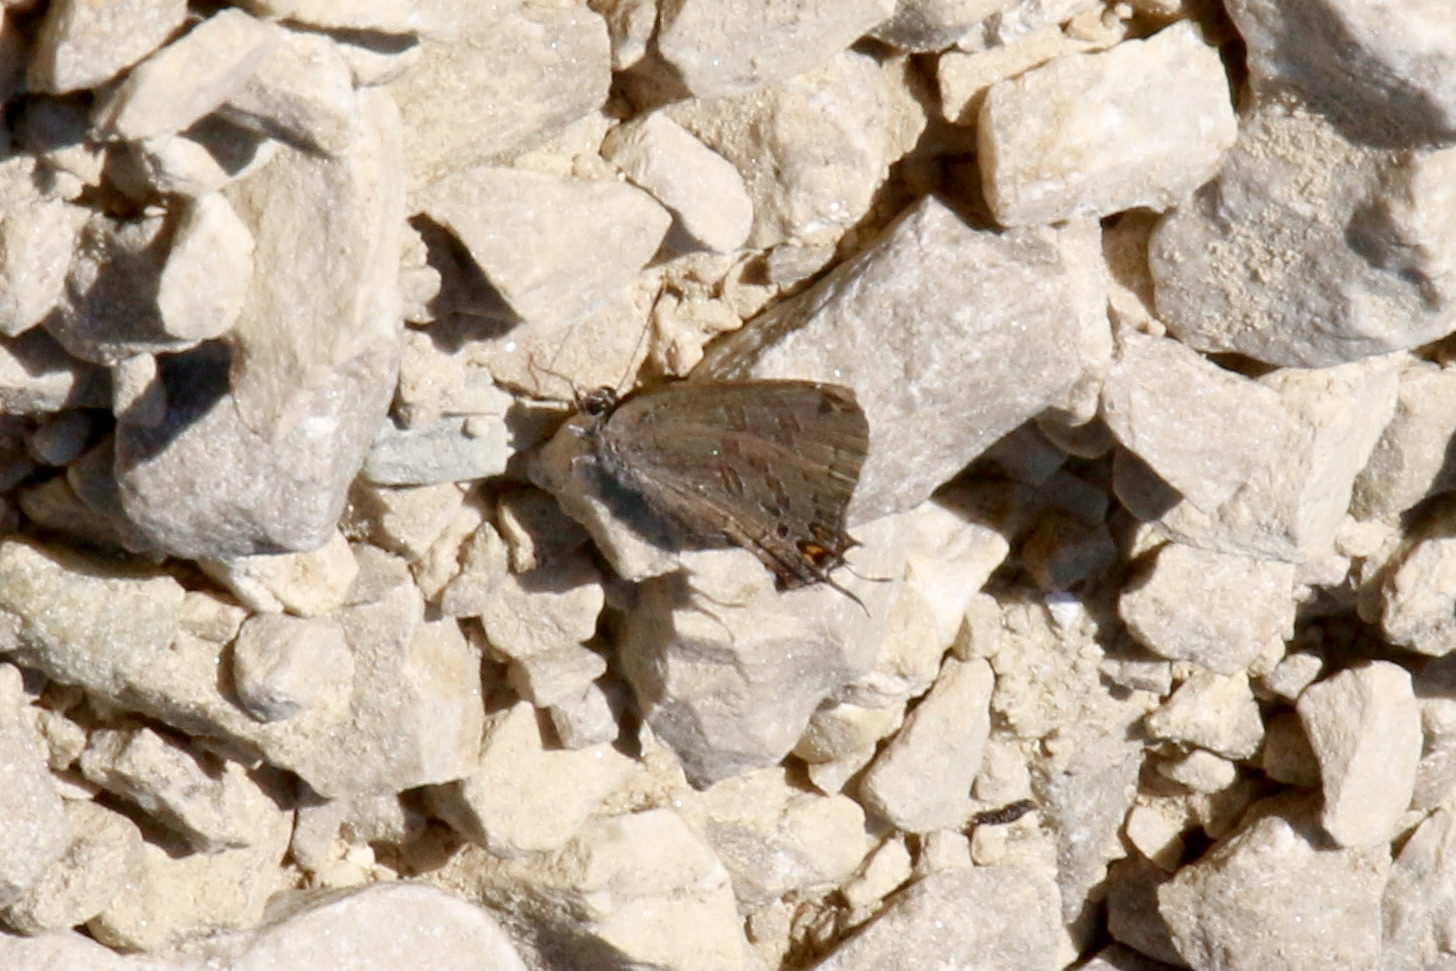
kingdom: Animalia
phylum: Arthropoda
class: Insecta
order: Lepidoptera
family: Lycaenidae
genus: Strymon
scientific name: Strymon caryaevorus
